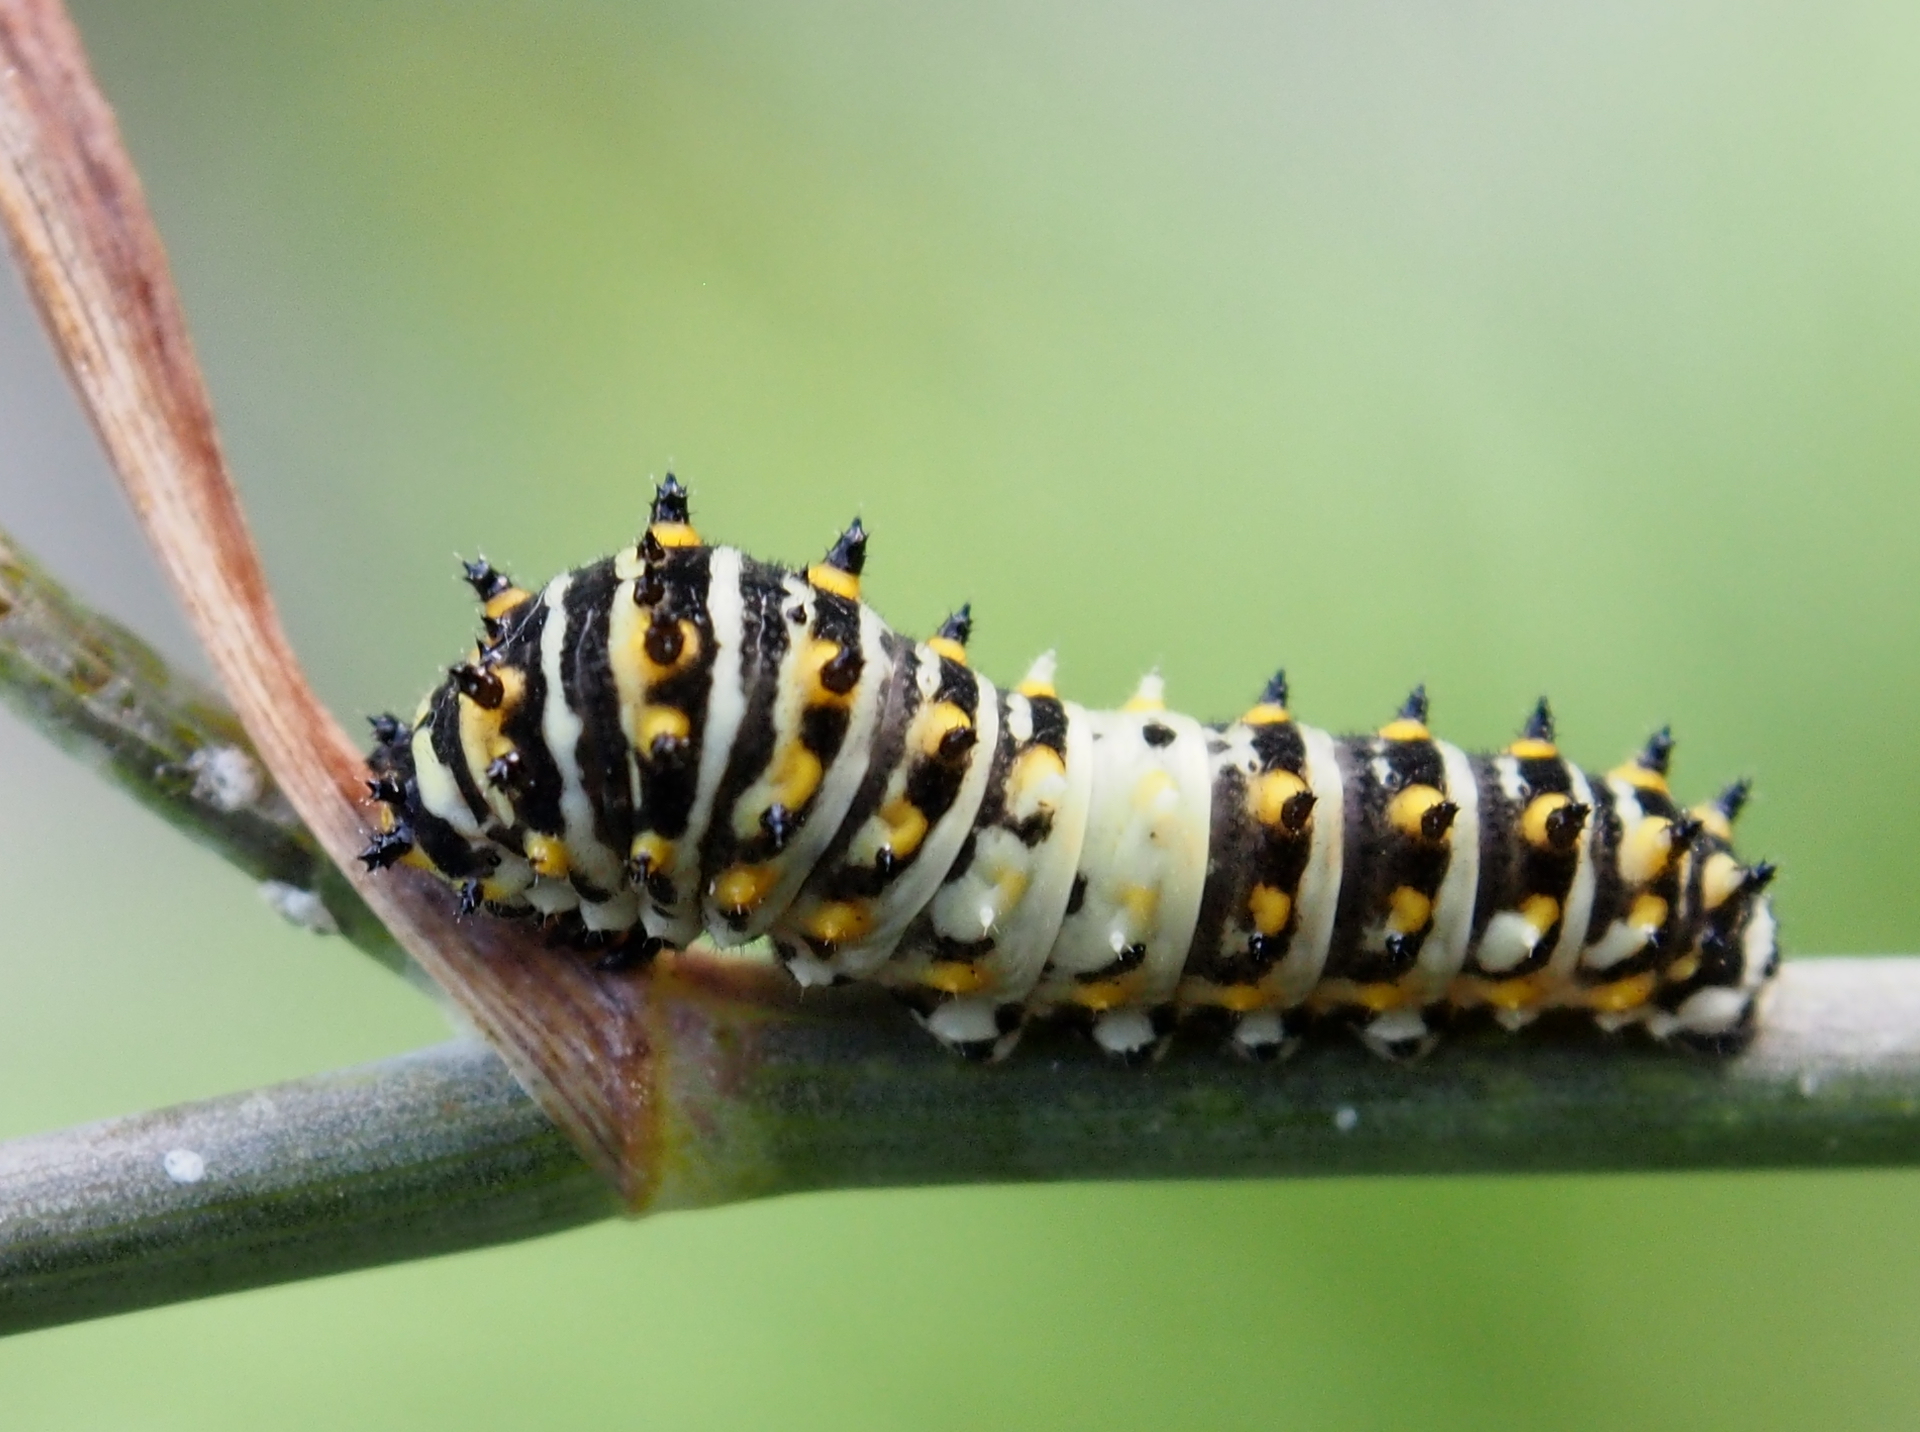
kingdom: Animalia
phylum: Arthropoda
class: Insecta
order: Lepidoptera
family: Papilionidae
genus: Papilio
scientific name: Papilio polyxenes
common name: Black swallowtail
